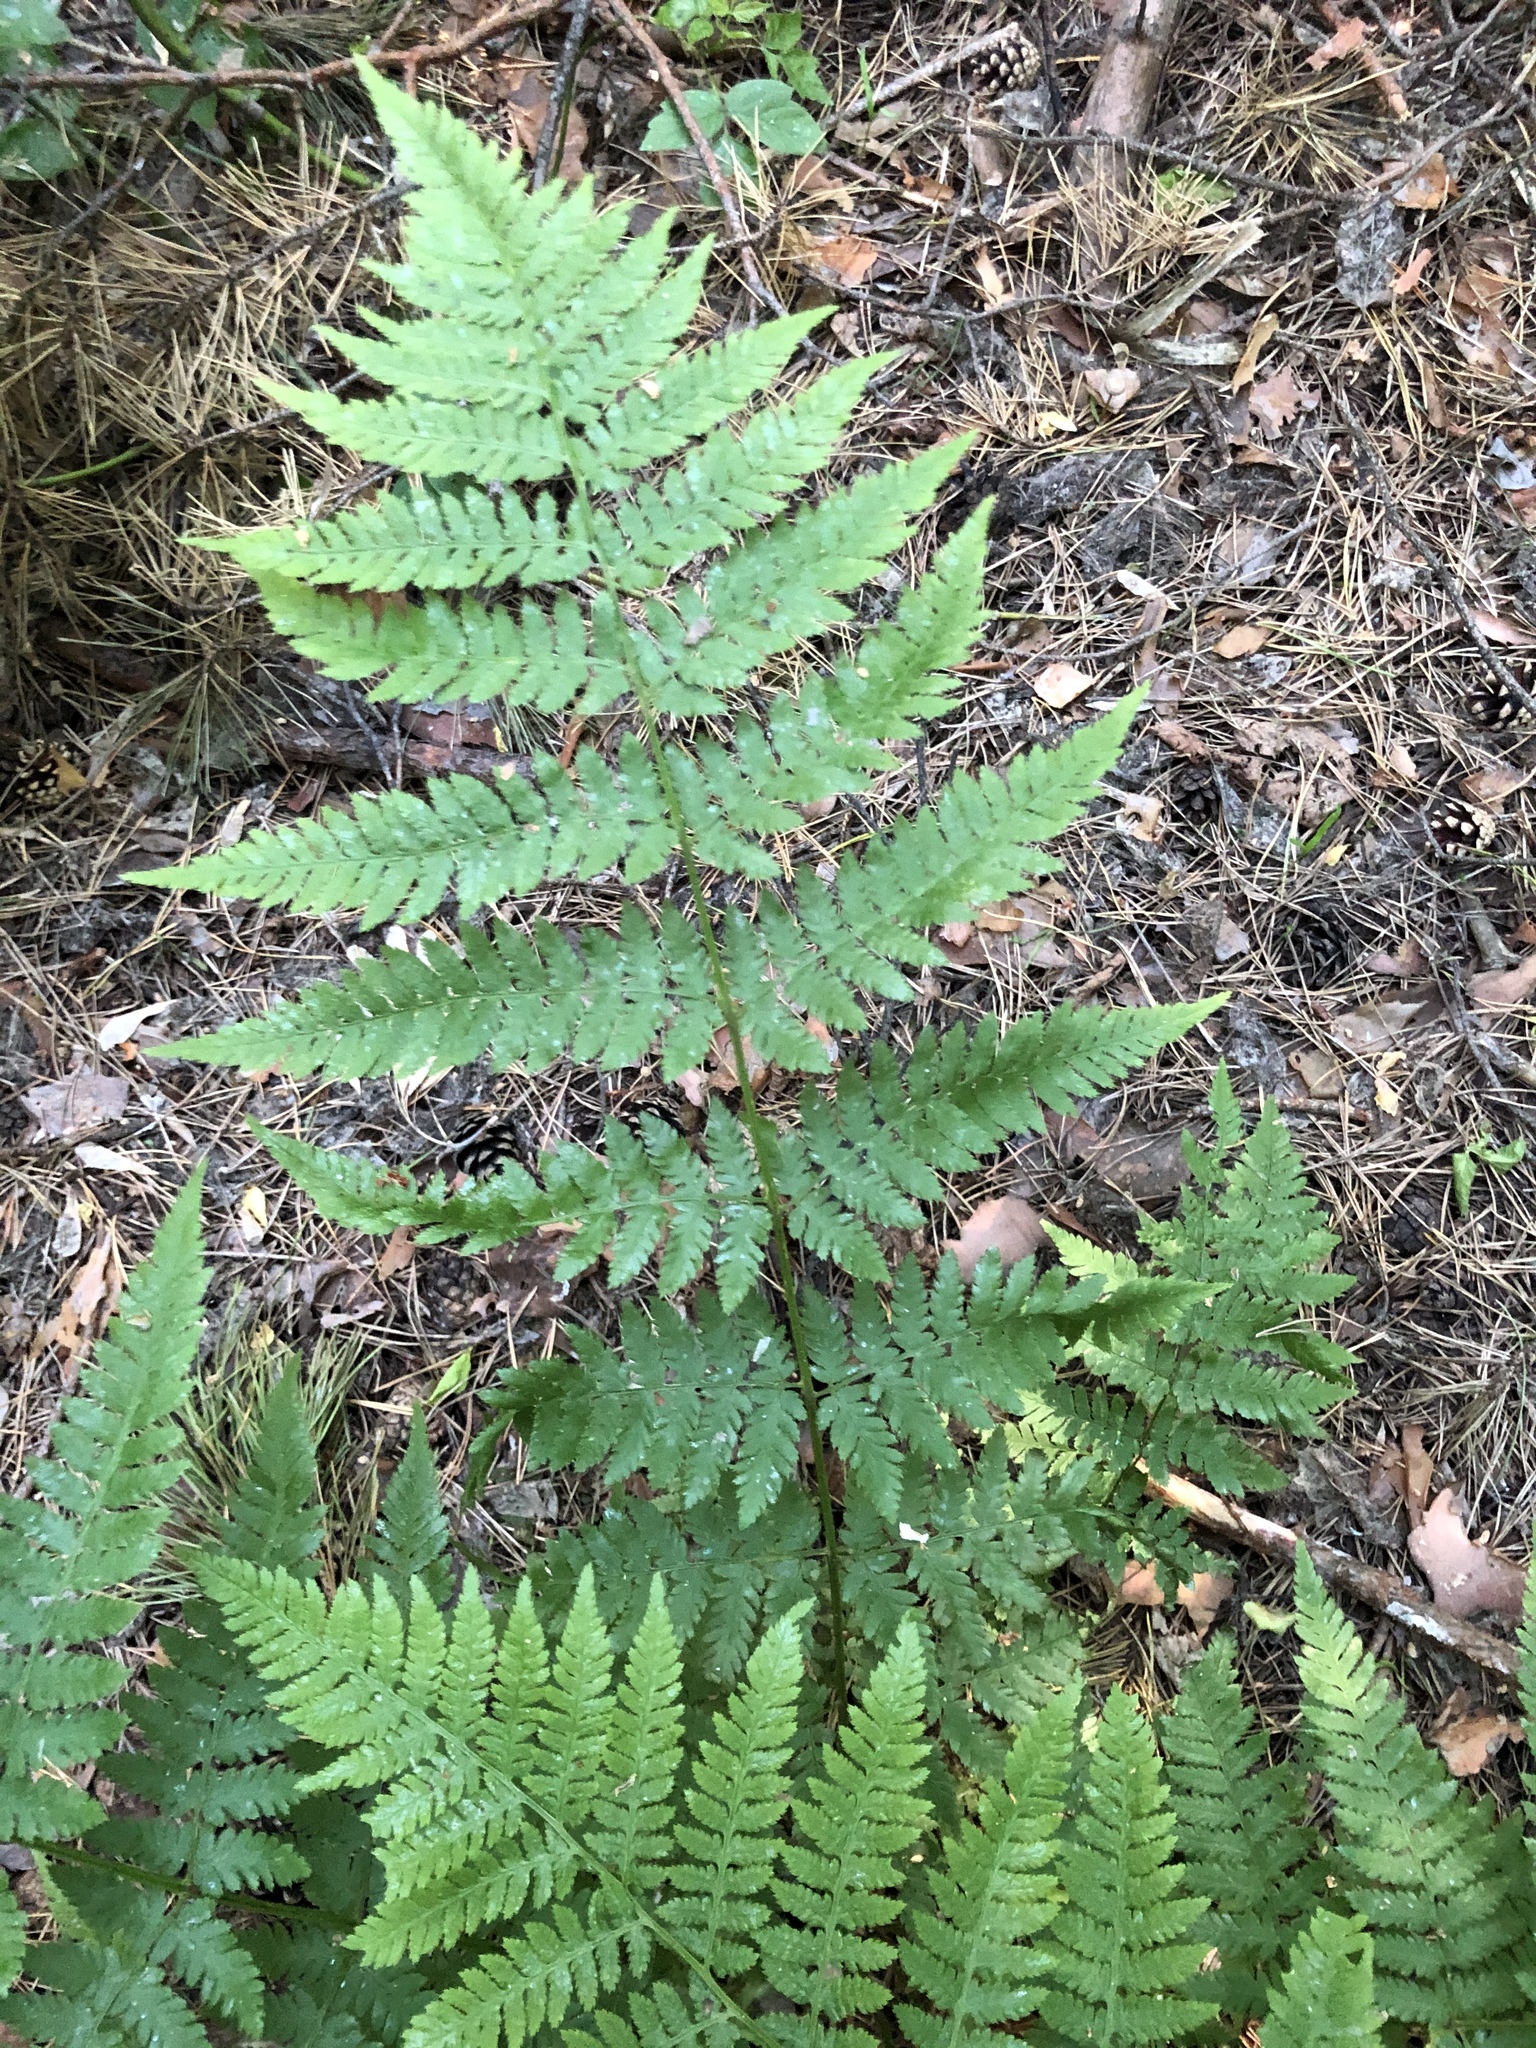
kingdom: Plantae
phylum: Tracheophyta
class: Polypodiopsida
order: Polypodiales
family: Dryopteridaceae
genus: Dryopteris
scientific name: Dryopteris carthusiana
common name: Narrow buckler-fern
